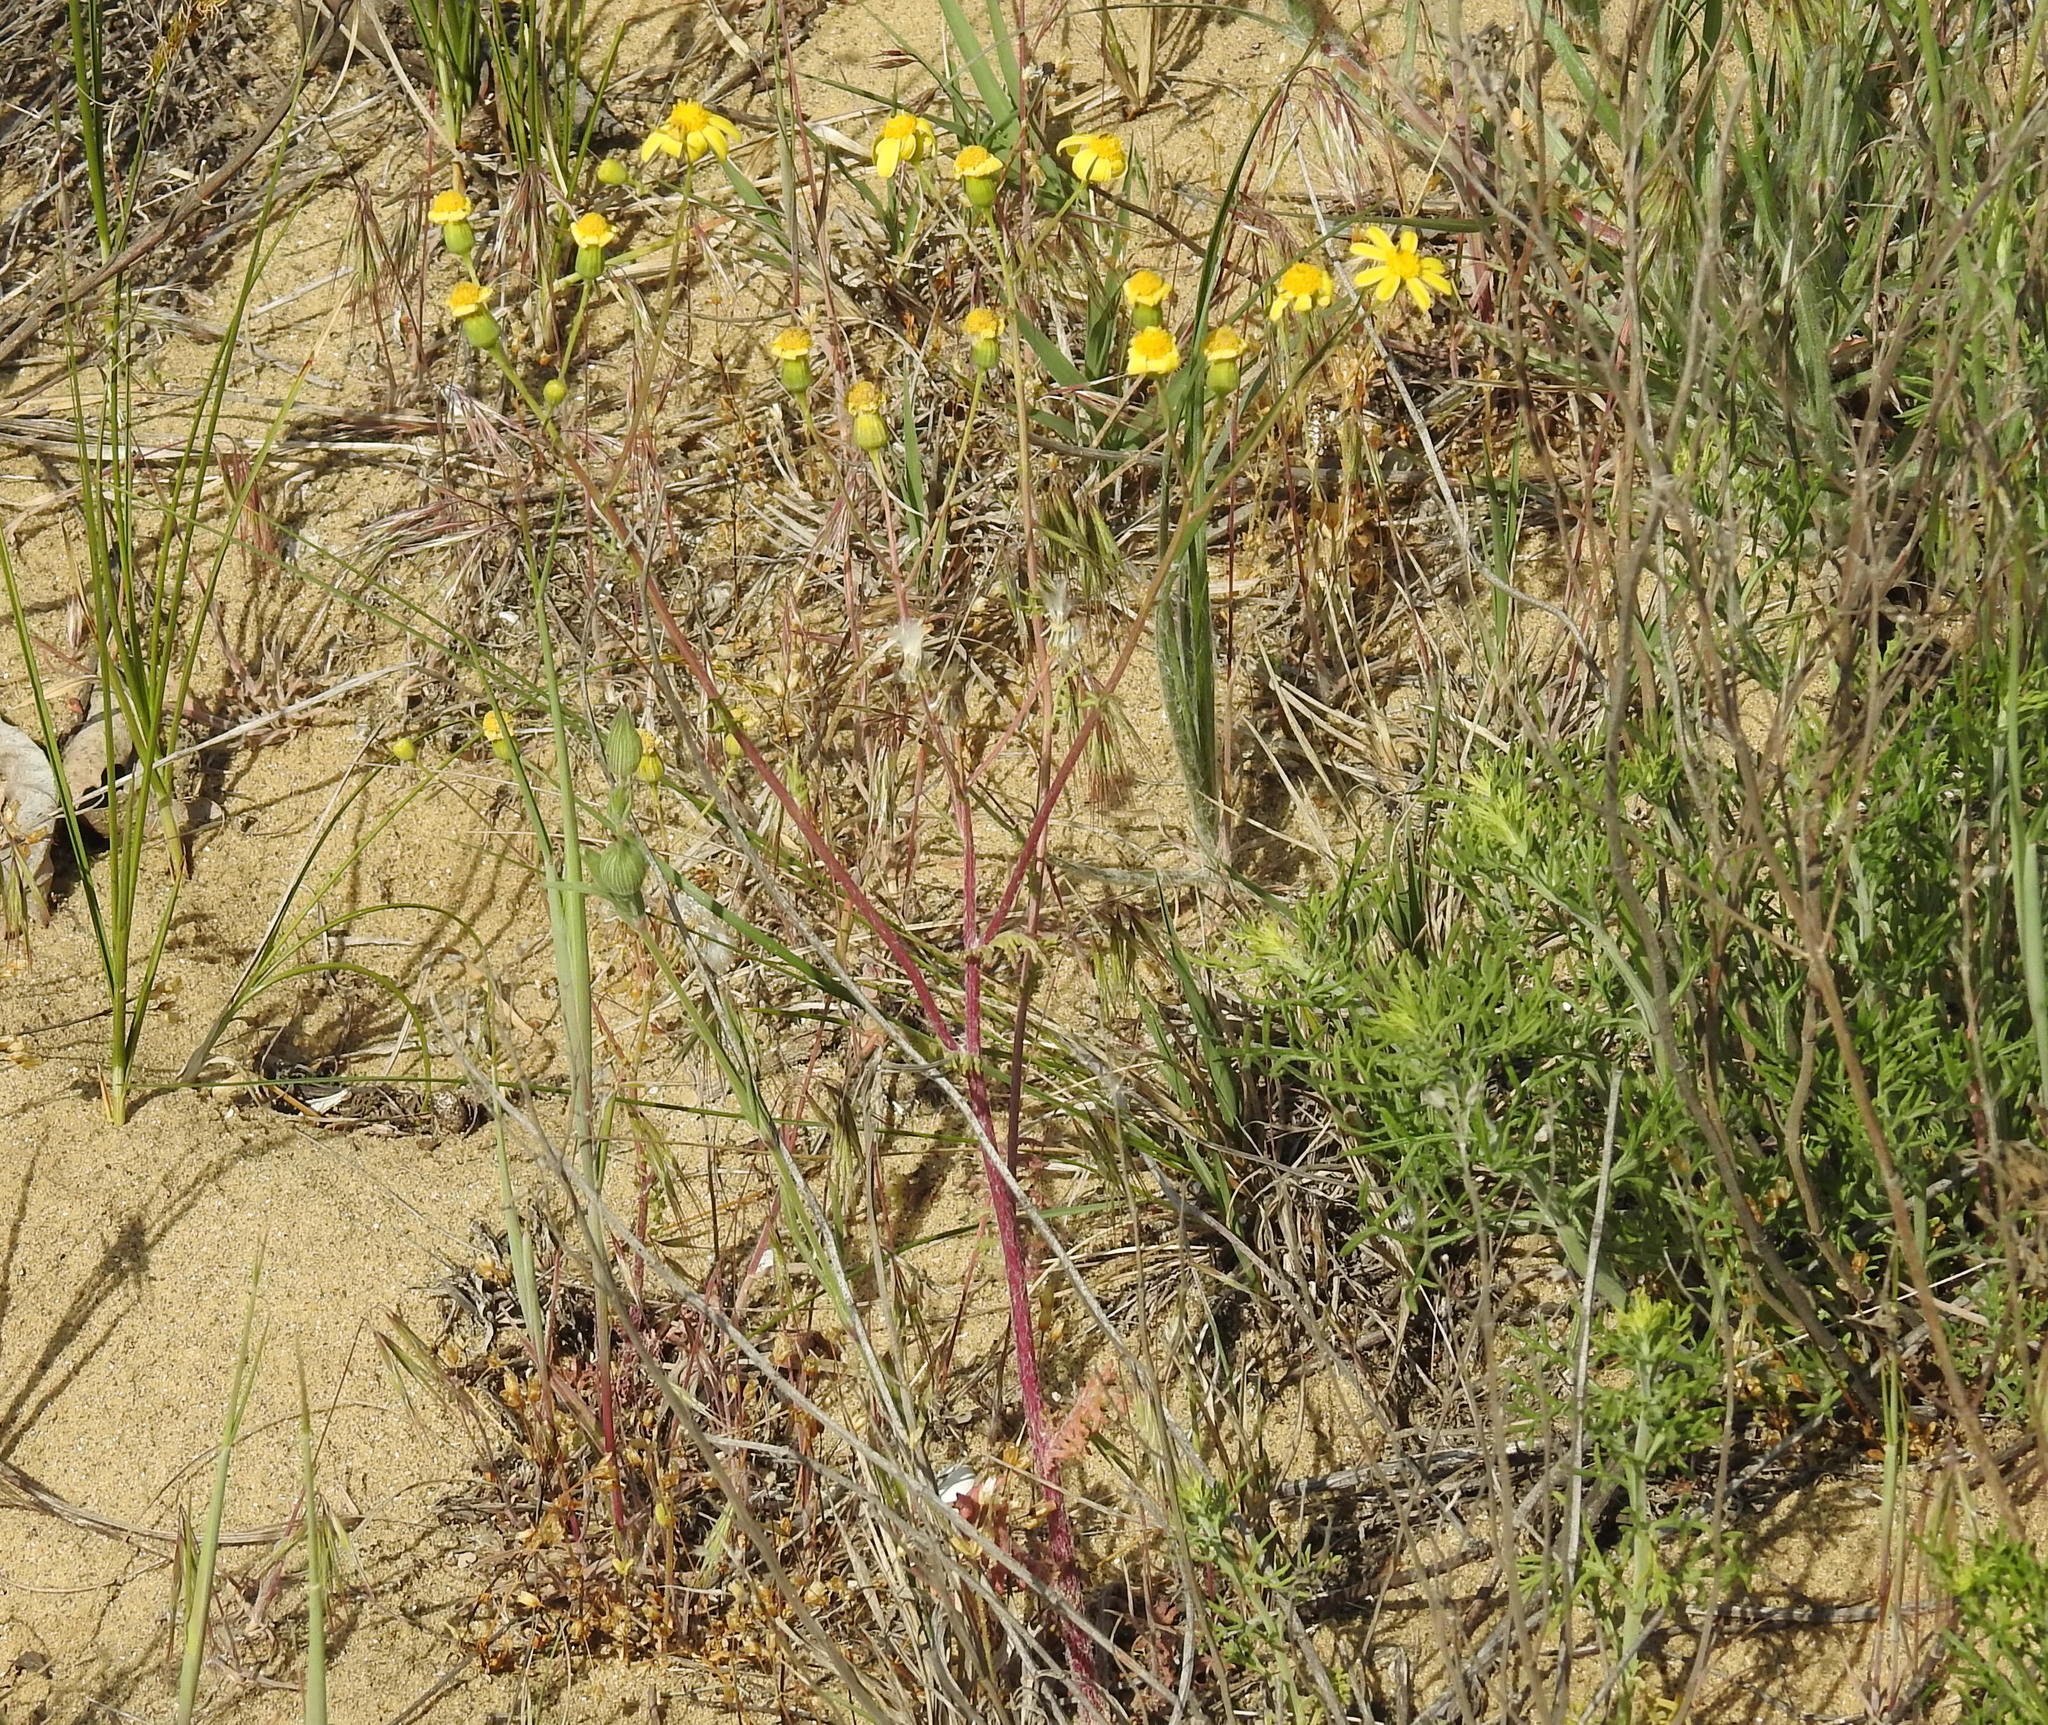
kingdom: Plantae
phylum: Tracheophyta
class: Magnoliopsida
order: Asterales
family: Asteraceae
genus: Senecio
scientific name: Senecio vernalis
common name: Eastern groundsel
